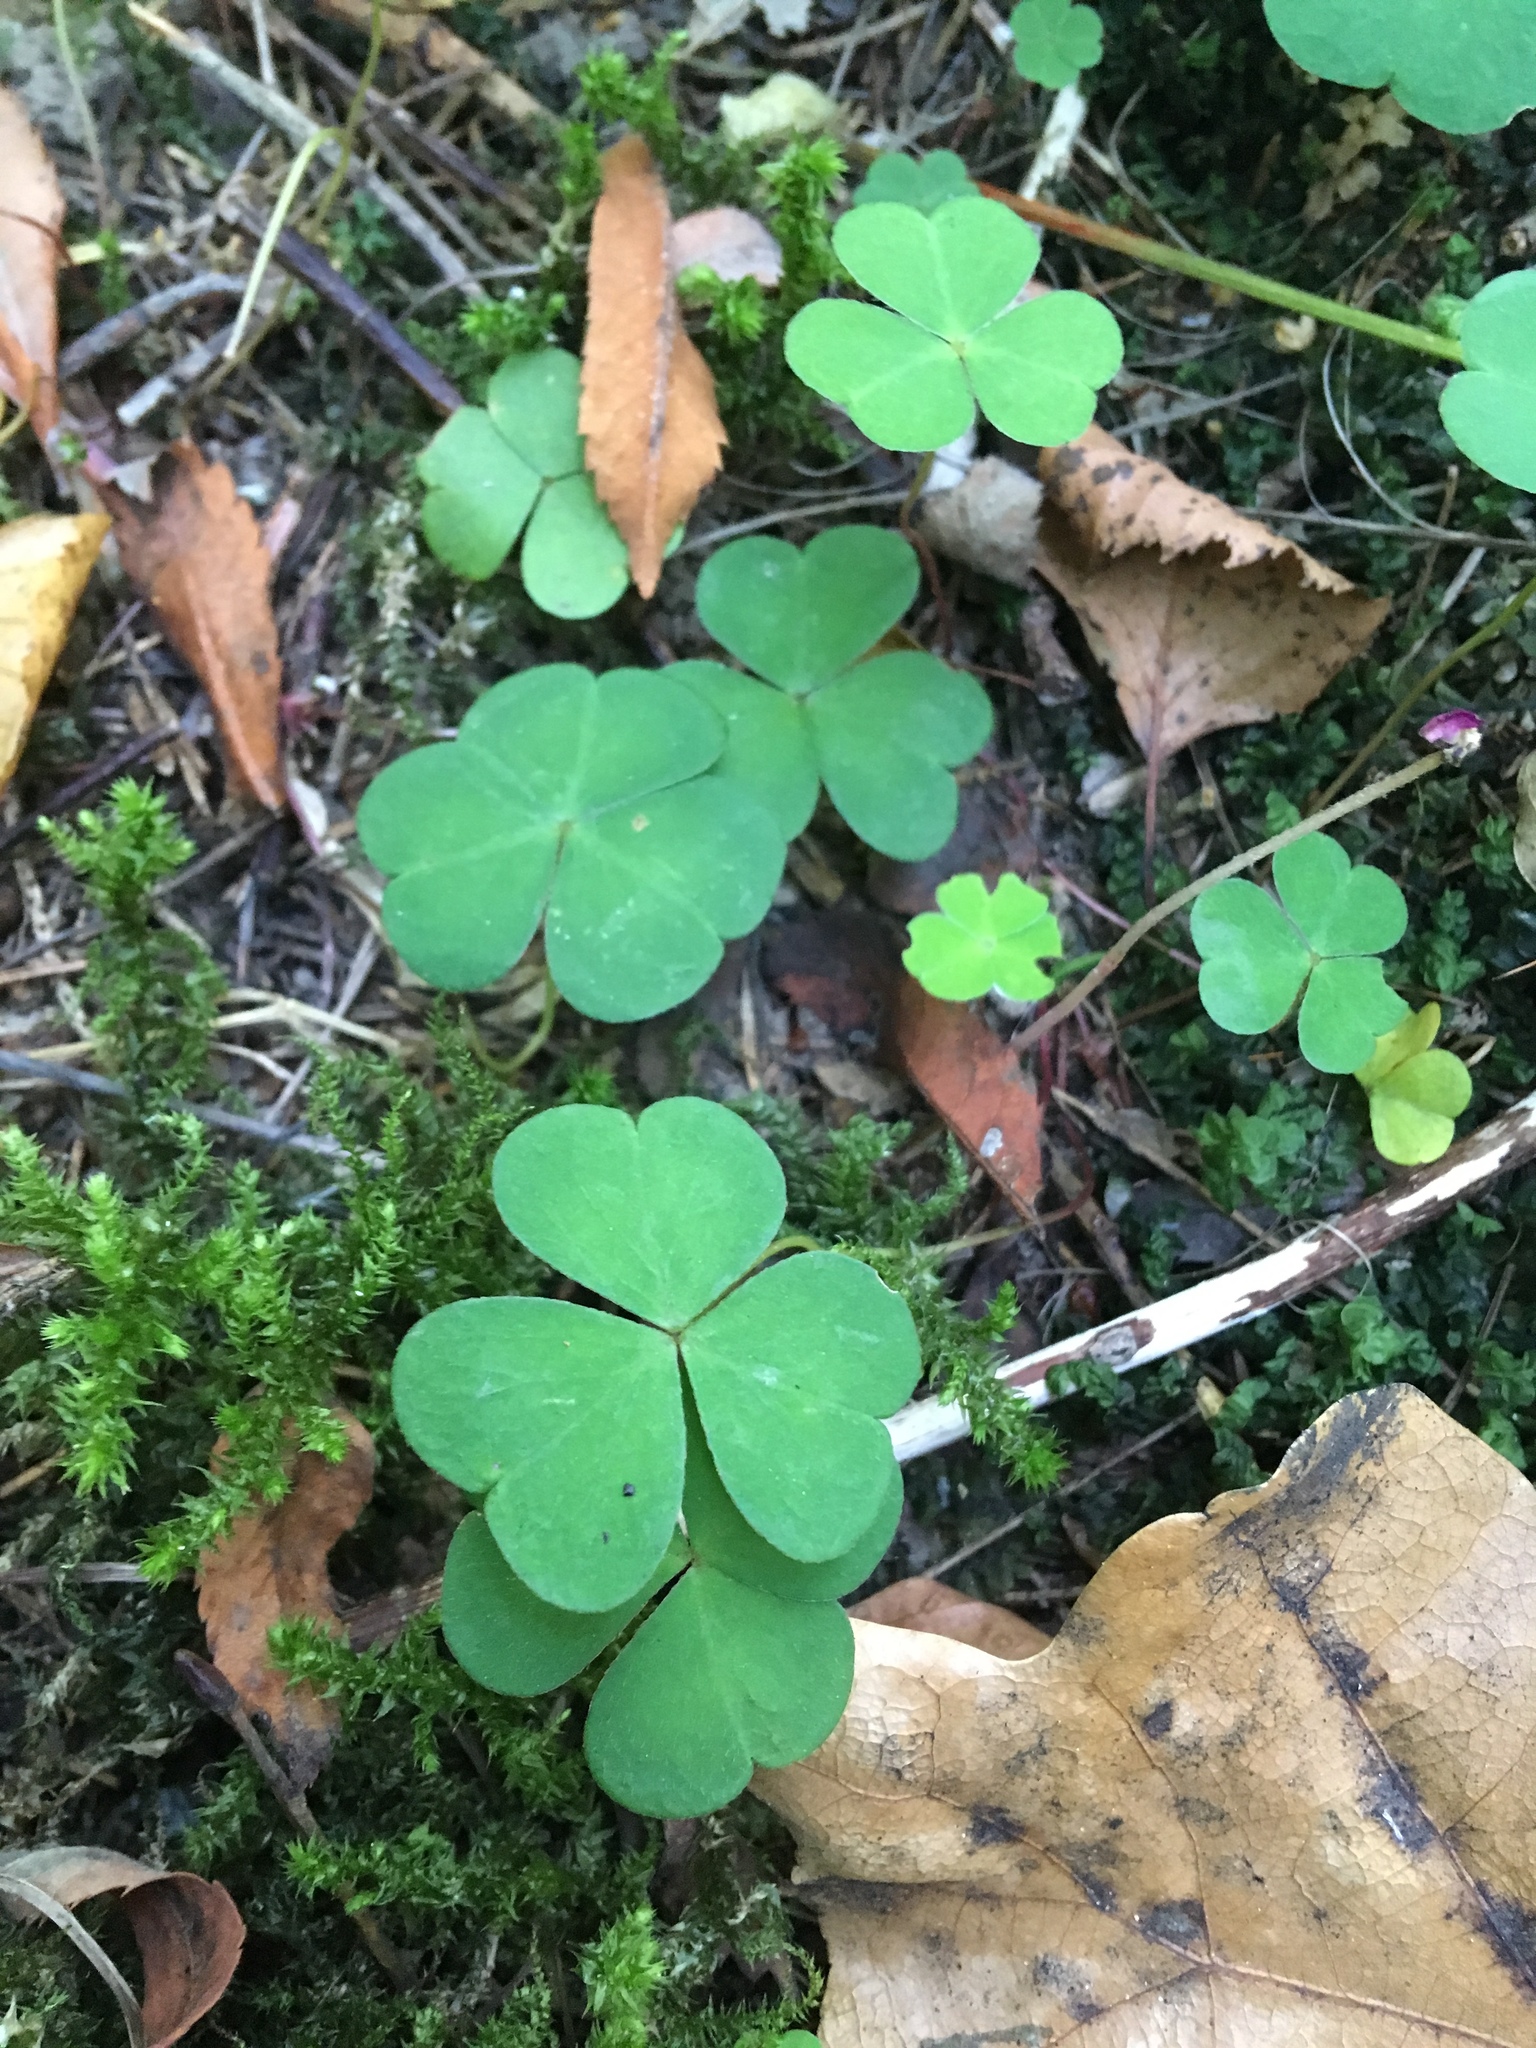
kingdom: Plantae
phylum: Tracheophyta
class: Magnoliopsida
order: Oxalidales
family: Oxalidaceae
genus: Oxalis
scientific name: Oxalis acetosella
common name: Wood-sorrel
